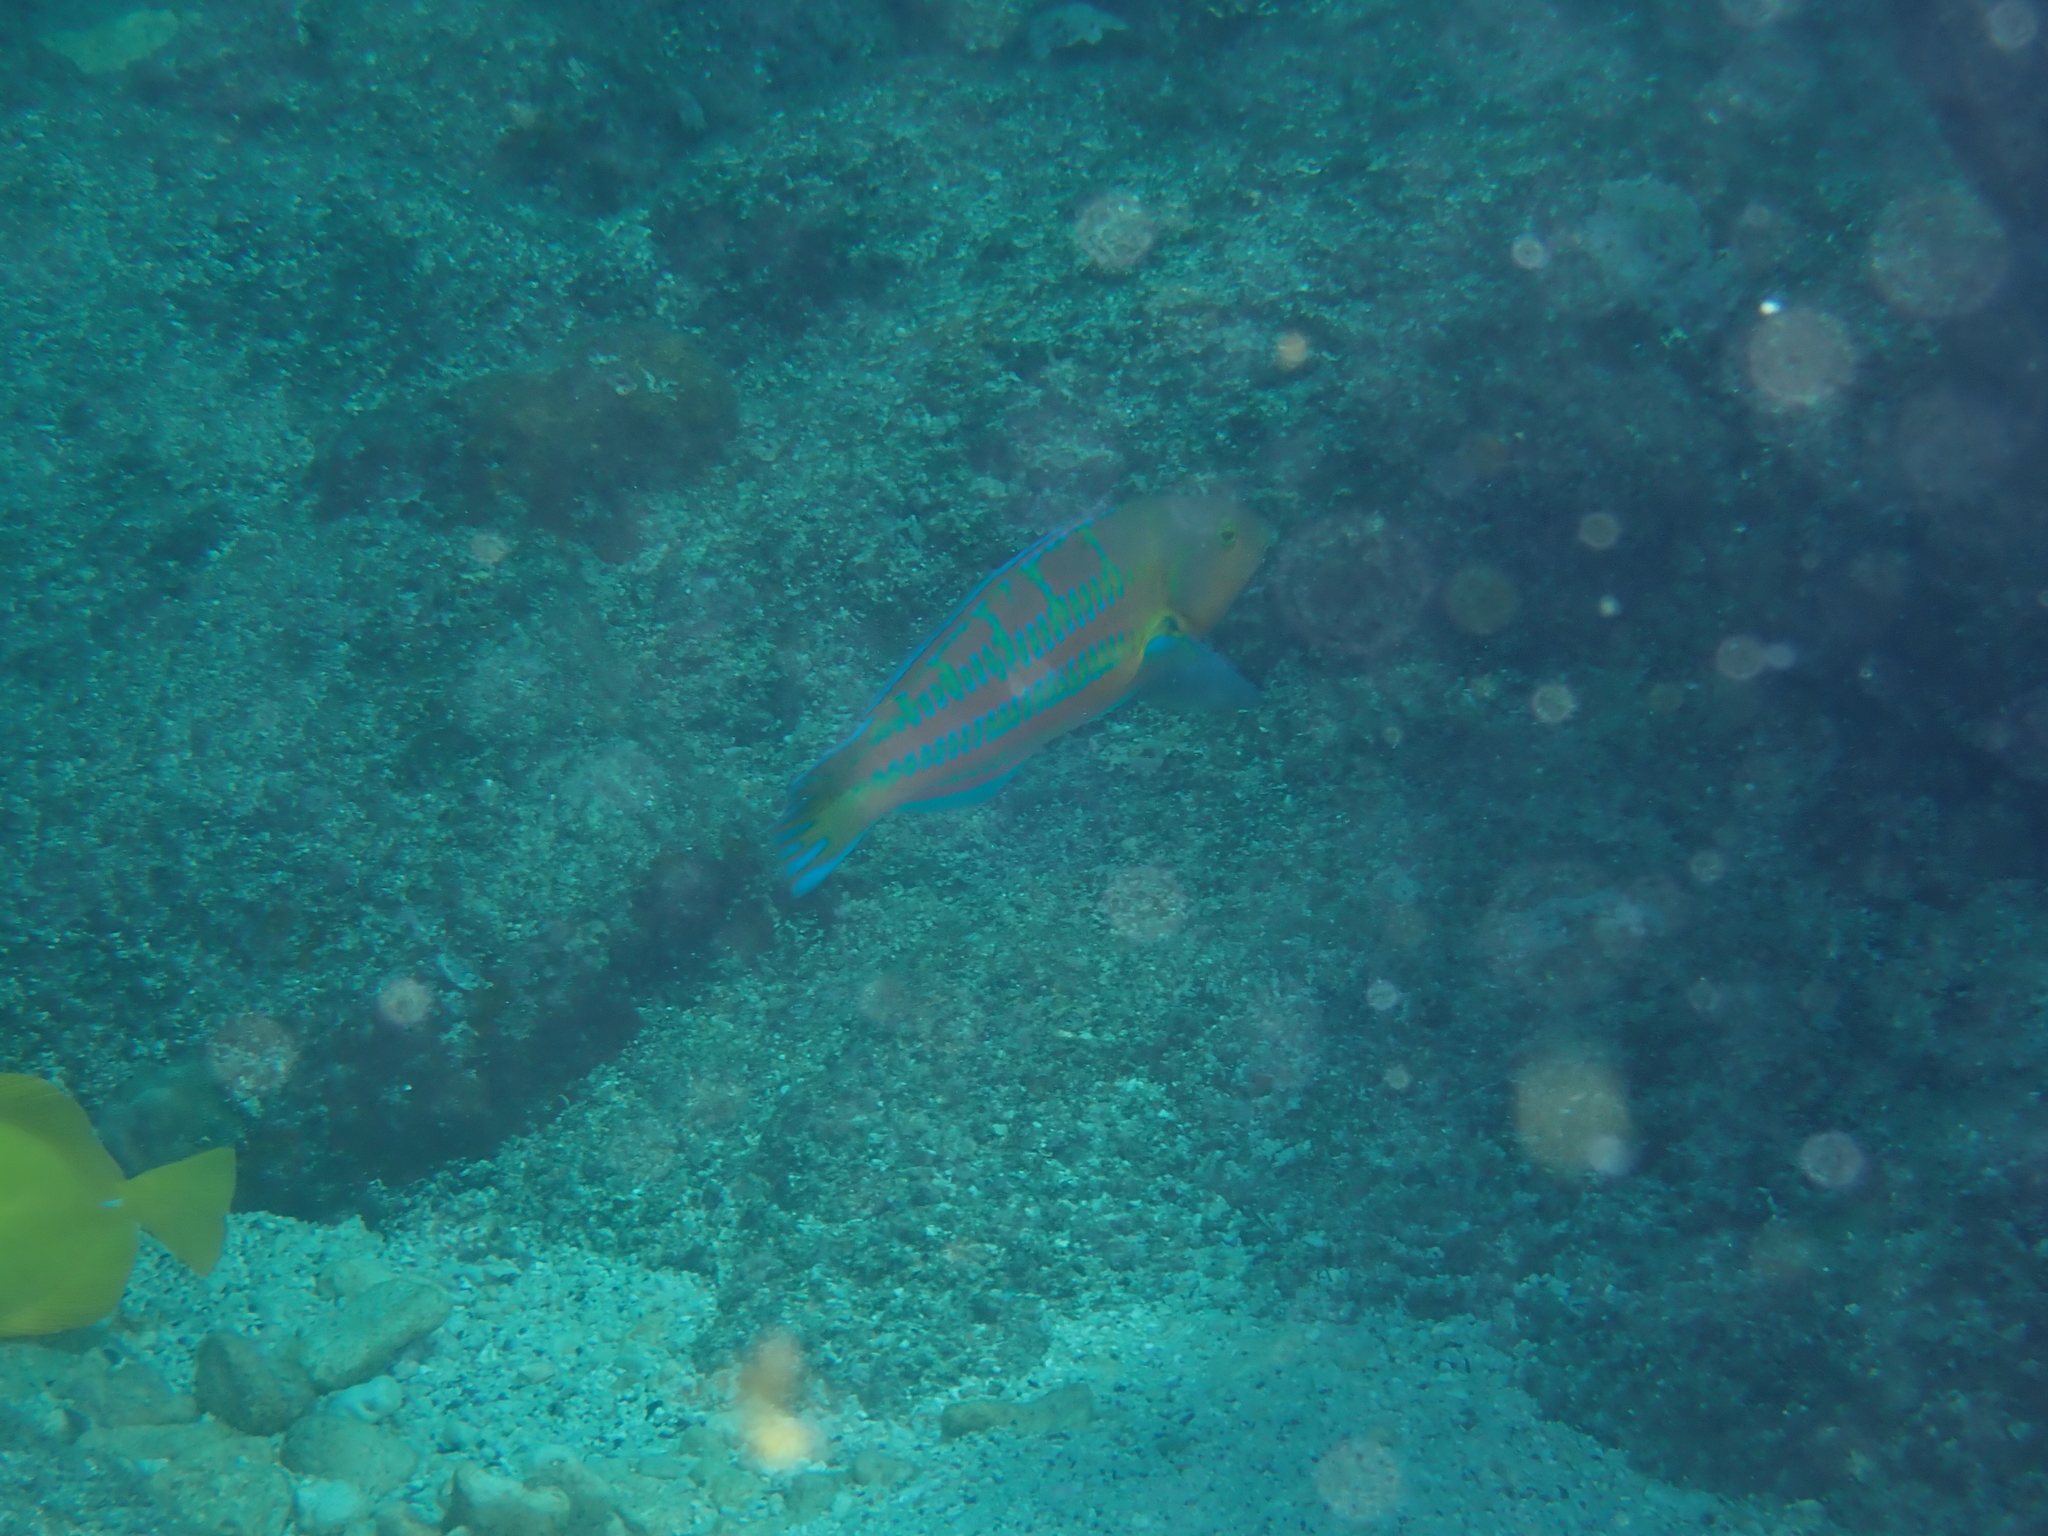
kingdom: Animalia
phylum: Chordata
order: Perciformes
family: Labridae
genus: Thalassoma
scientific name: Thalassoma trilobatum
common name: Christmas wrasse
